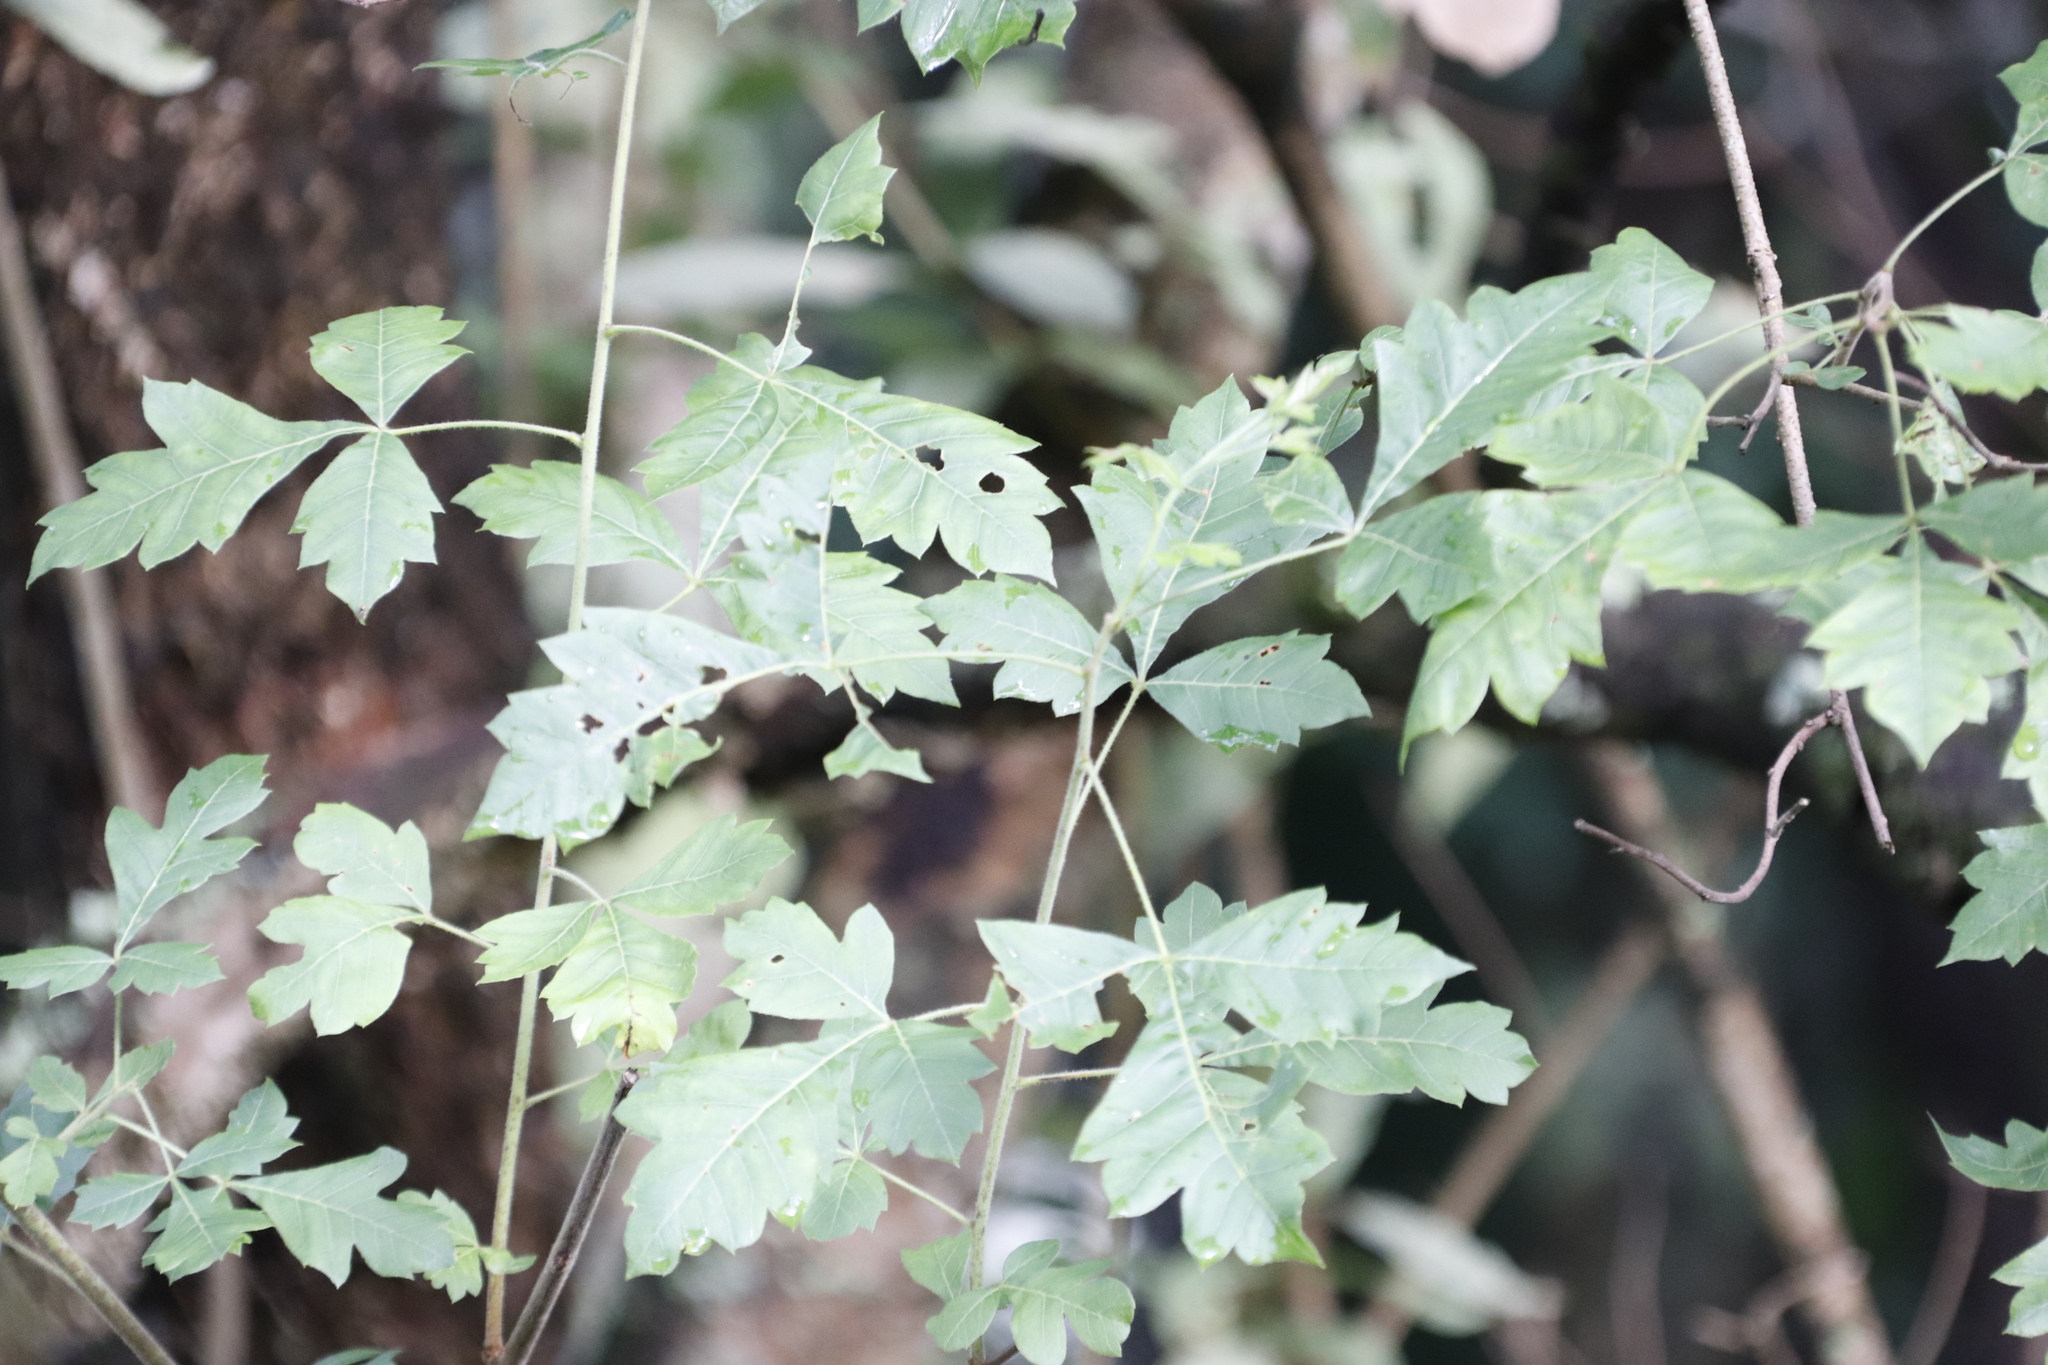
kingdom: Plantae
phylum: Tracheophyta
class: Magnoliopsida
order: Sapindales
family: Anacardiaceae
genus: Searsia
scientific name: Searsia dentata
